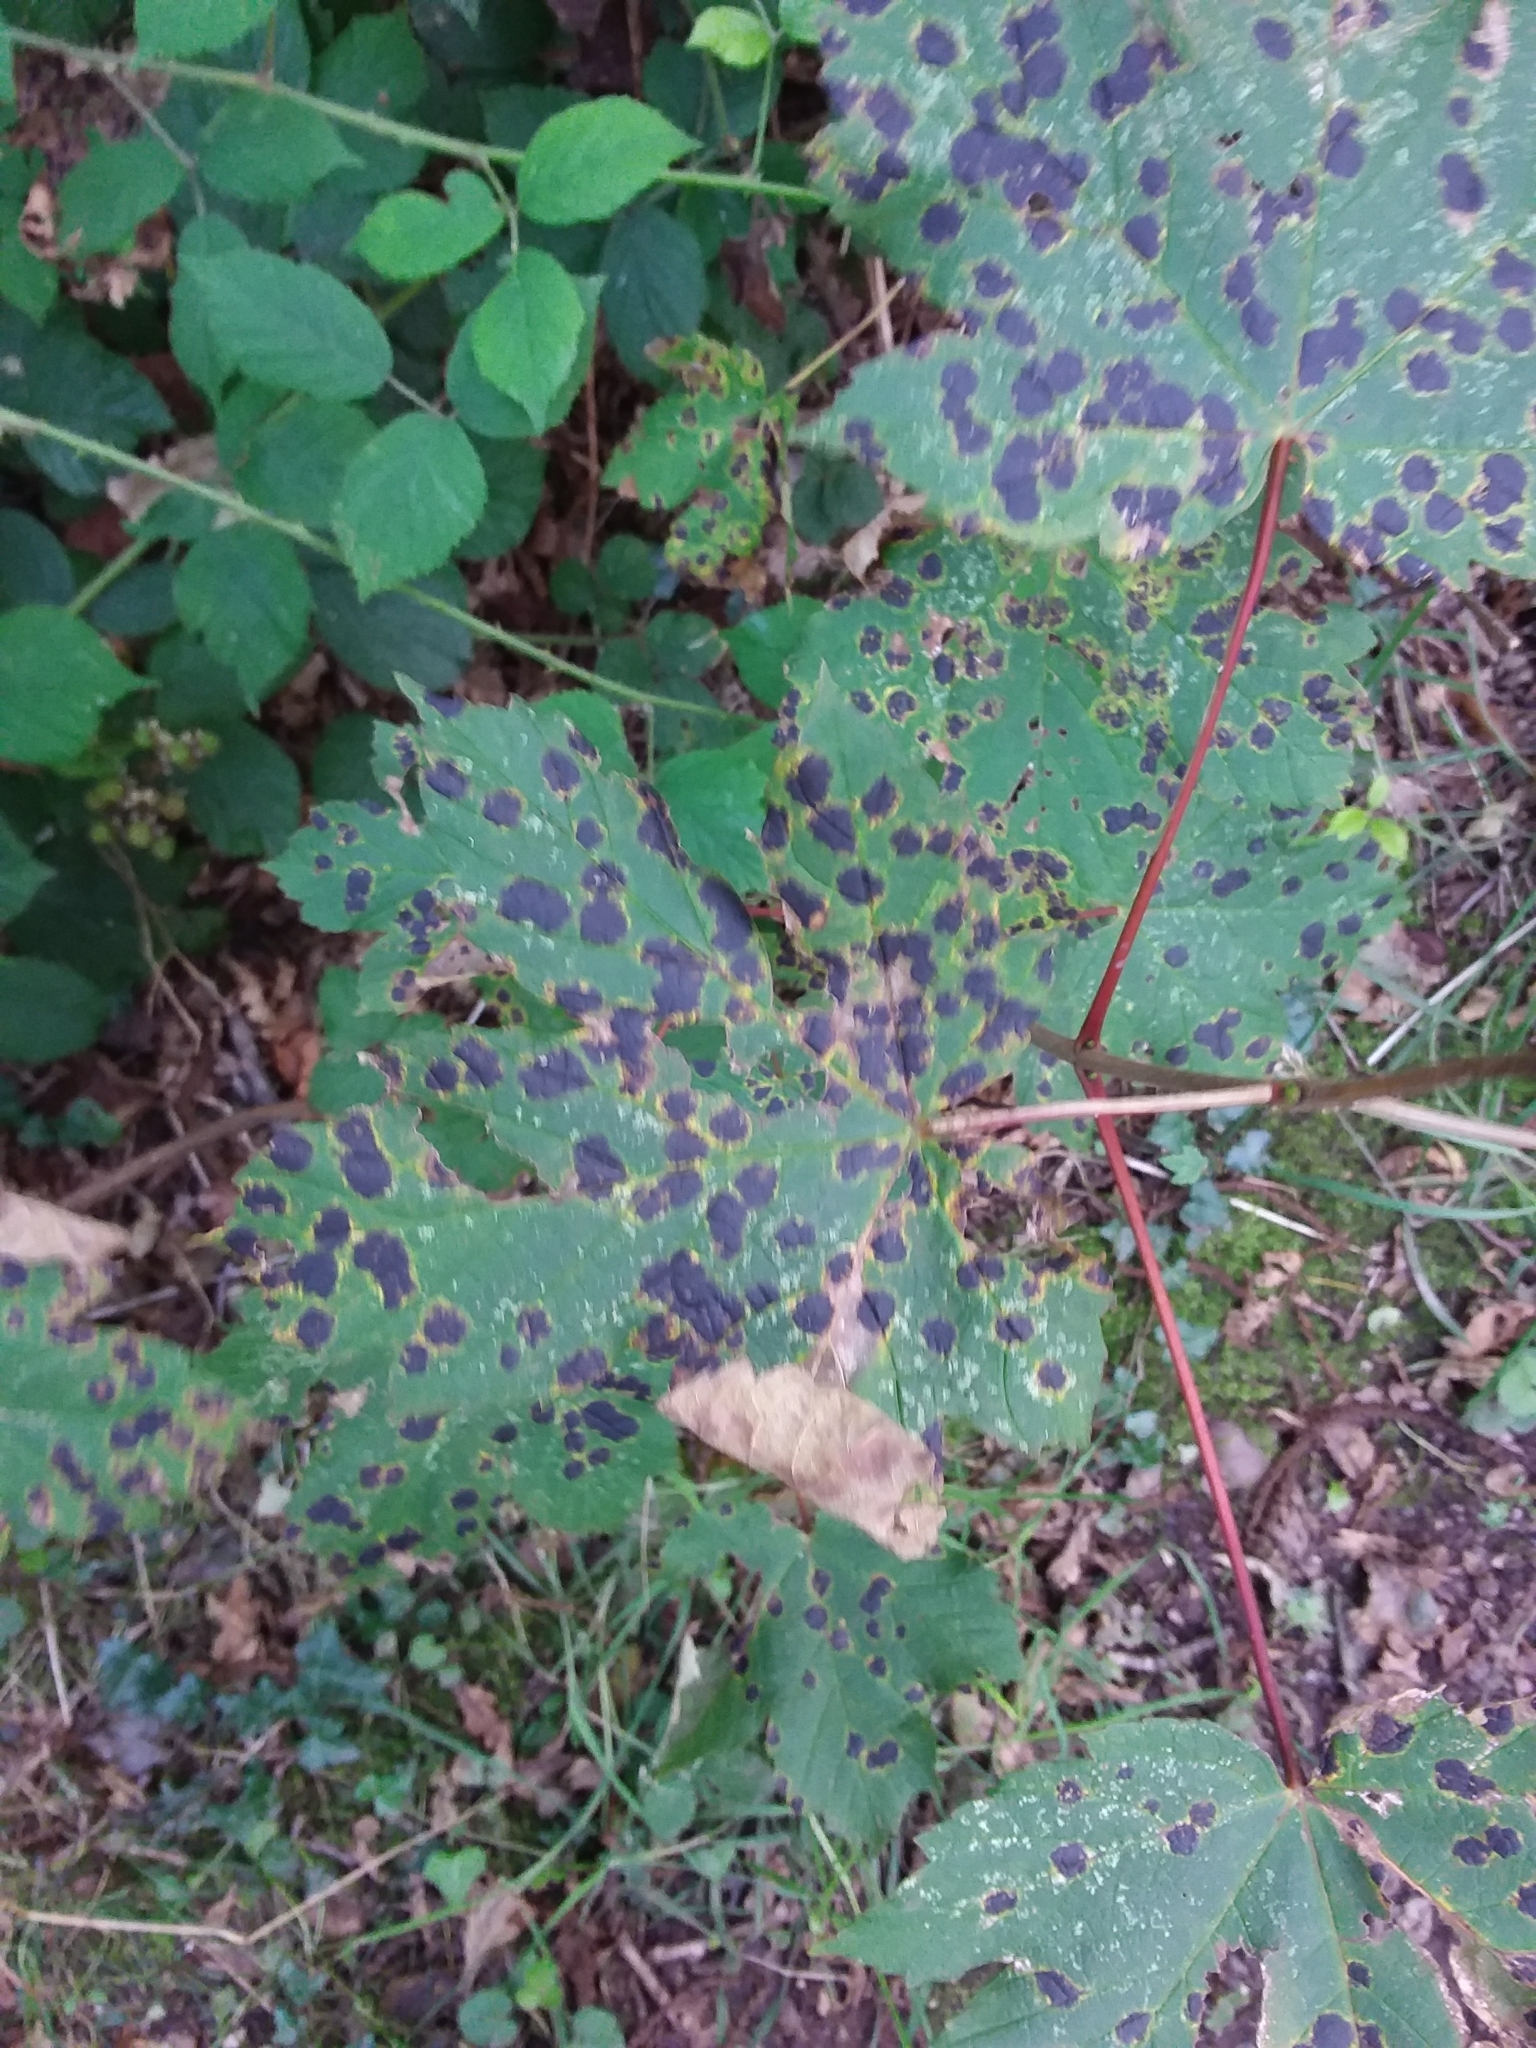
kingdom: Fungi
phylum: Ascomycota
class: Leotiomycetes
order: Rhytismatales
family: Rhytismataceae
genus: Rhytisma
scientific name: Rhytisma acerinum
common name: European tar spot
